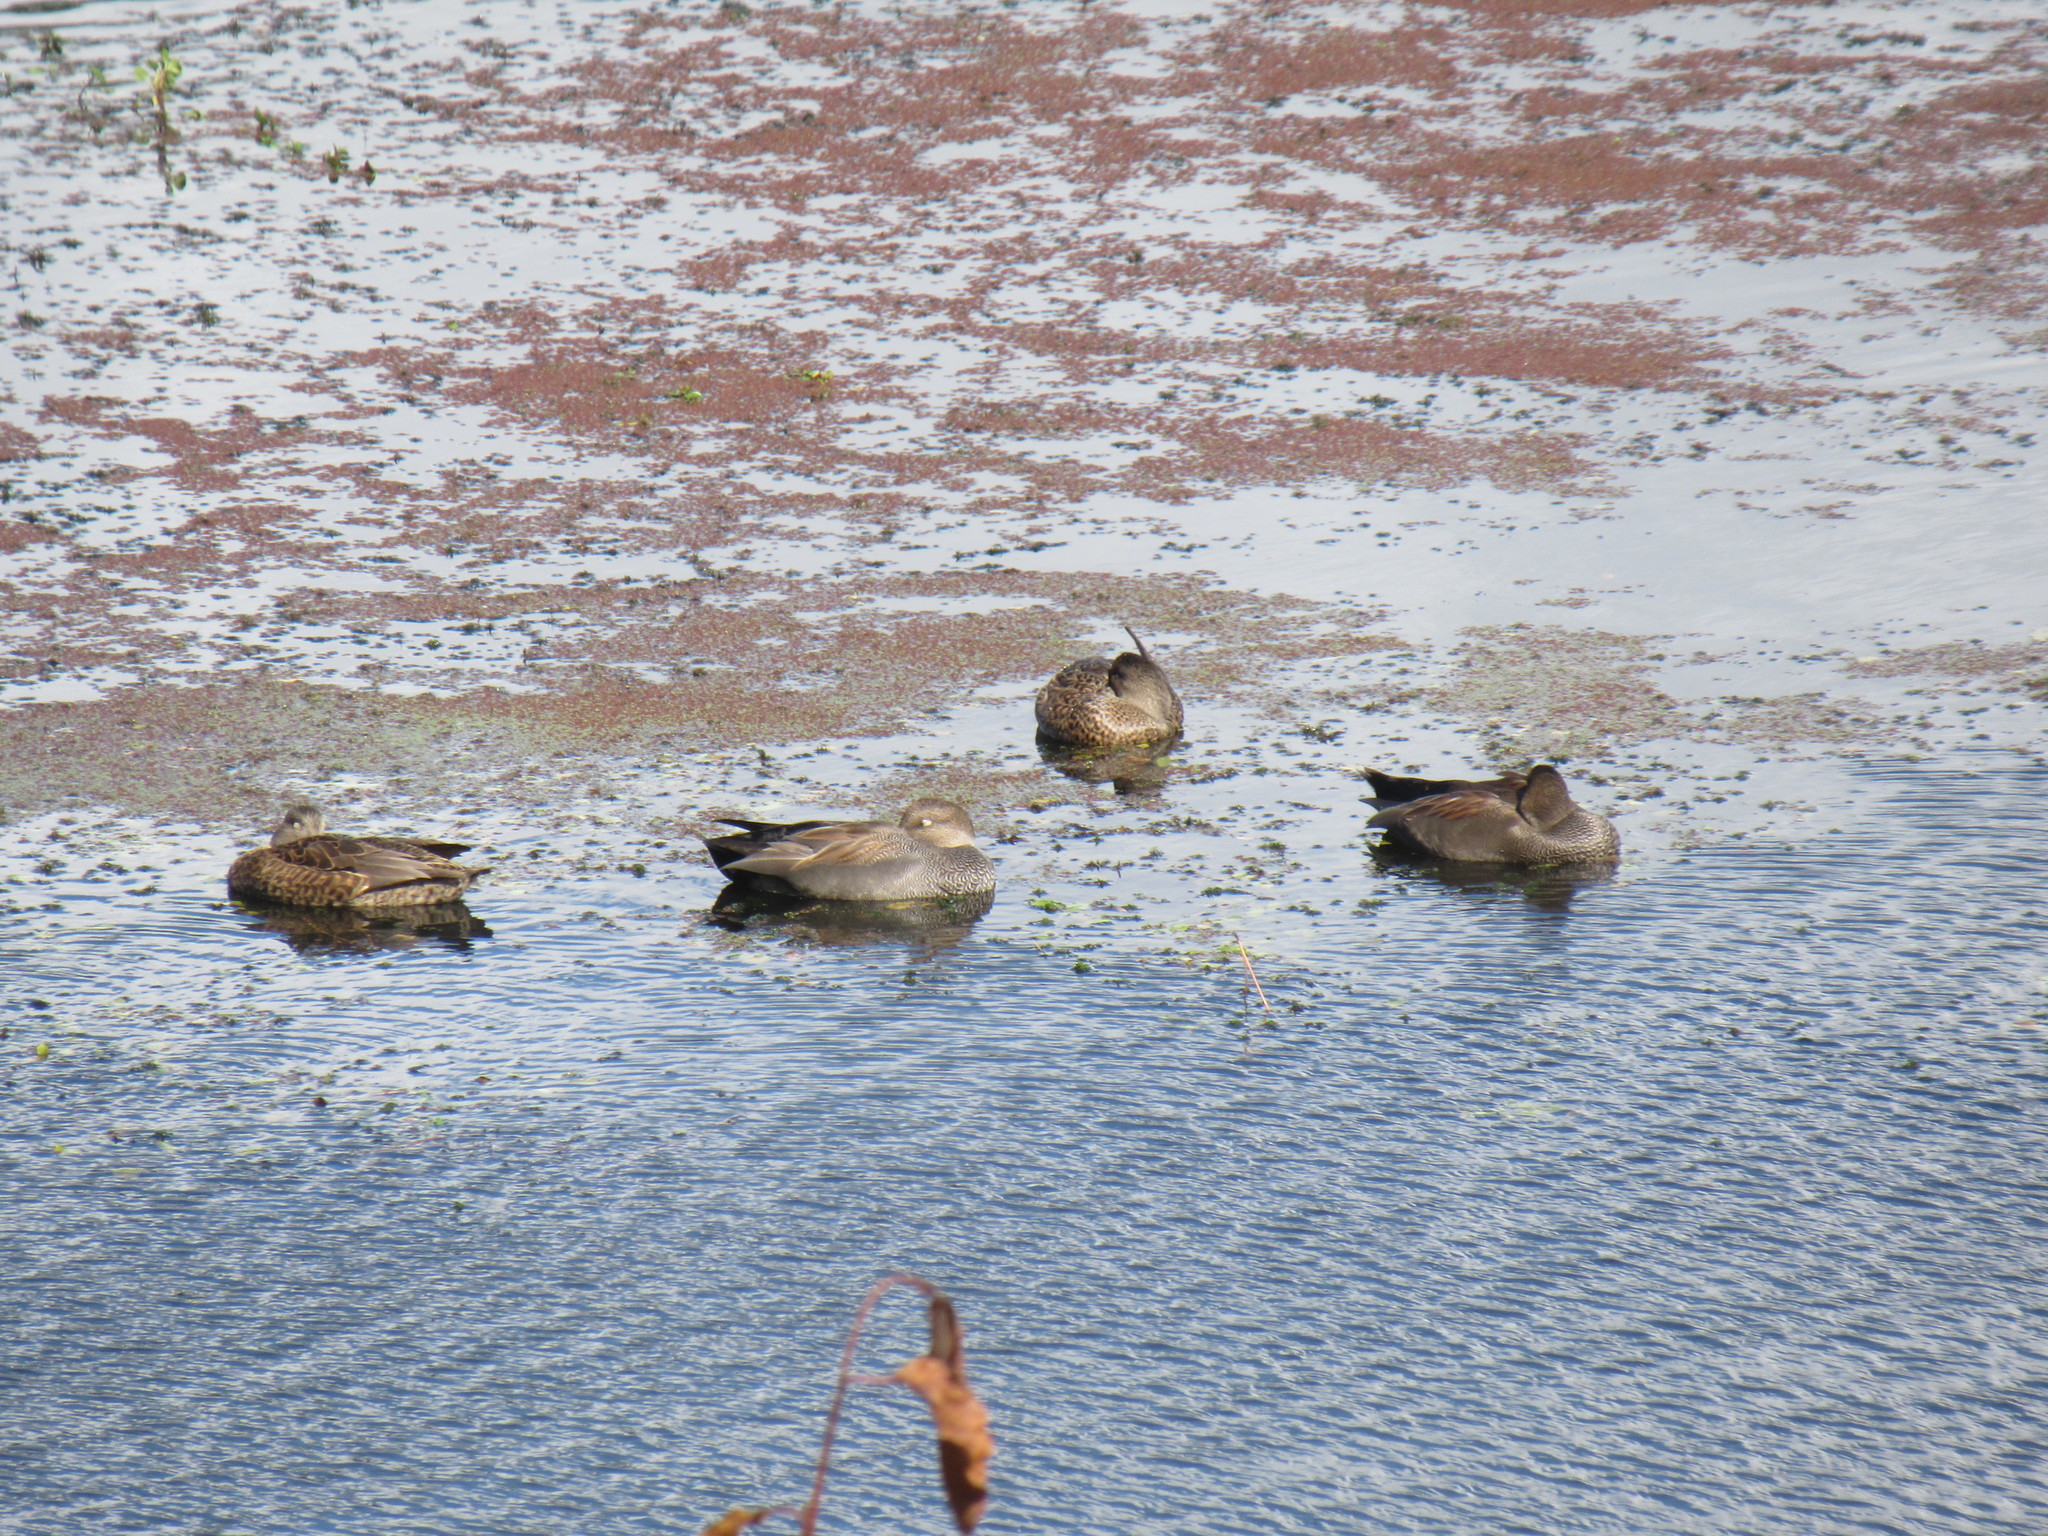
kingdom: Animalia
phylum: Chordata
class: Aves
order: Anseriformes
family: Anatidae
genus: Mareca
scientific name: Mareca strepera
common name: Gadwall
